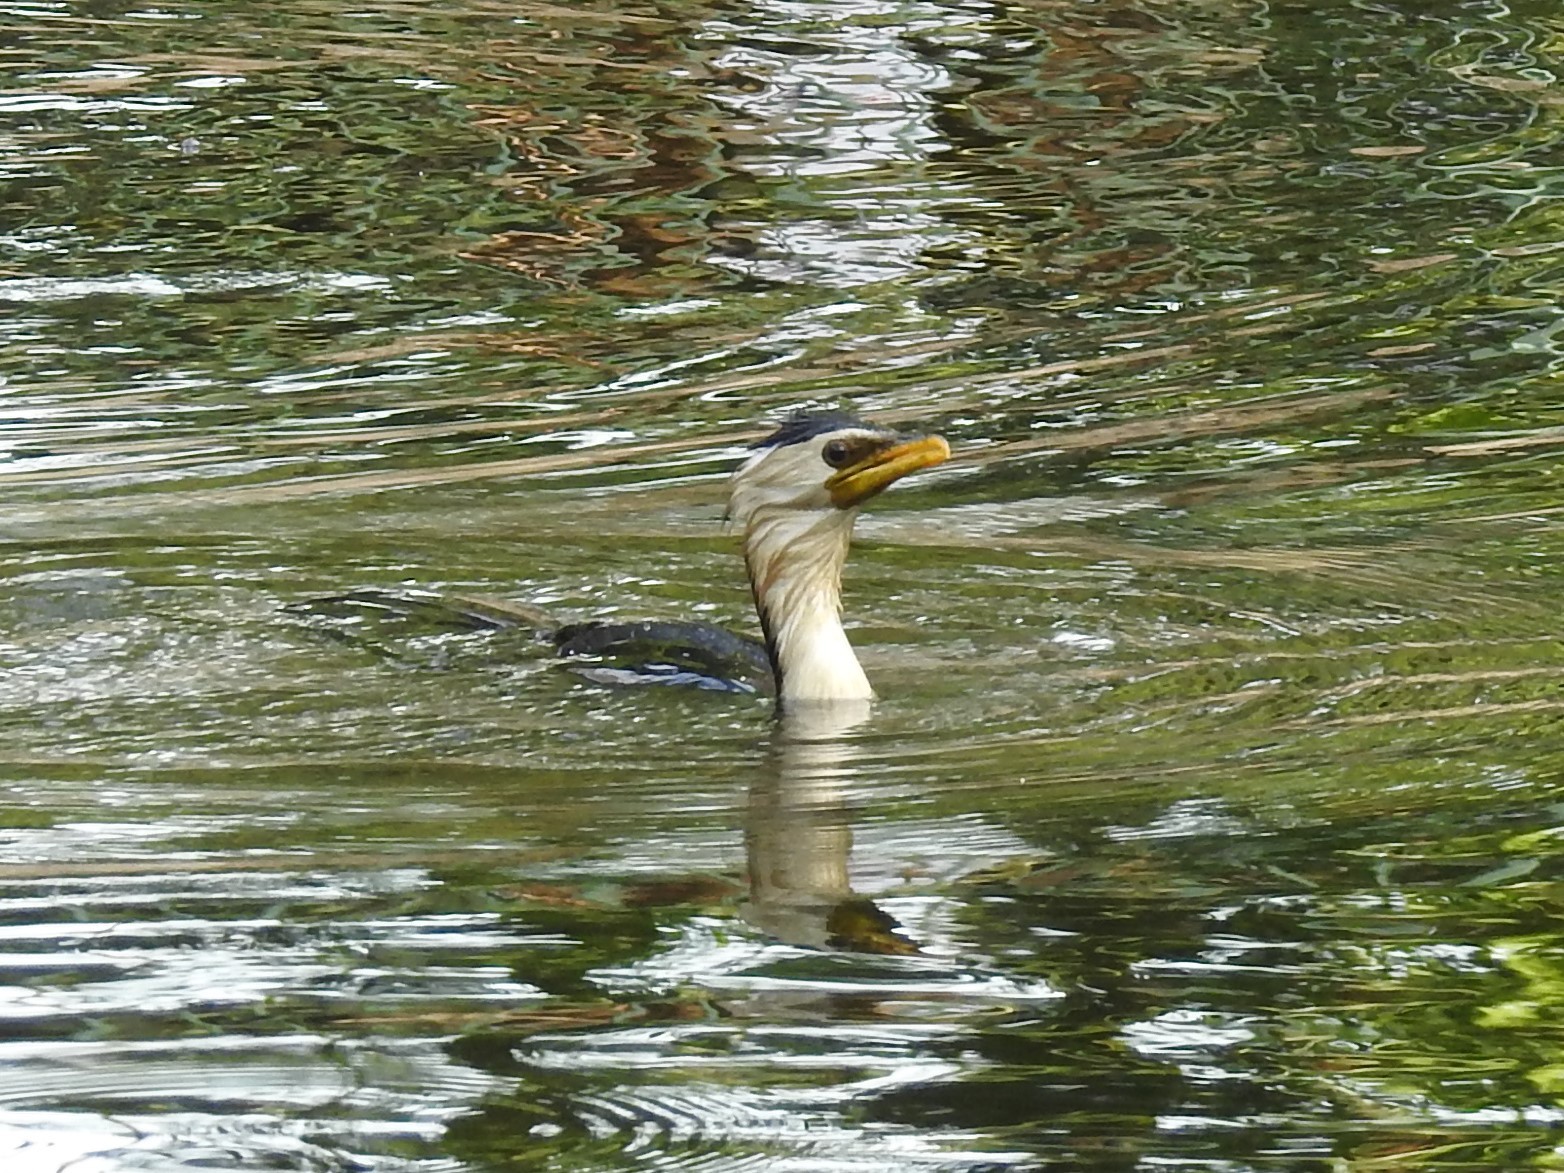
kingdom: Animalia
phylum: Chordata
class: Aves
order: Suliformes
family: Phalacrocoracidae
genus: Microcarbo
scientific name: Microcarbo melanoleucos
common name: Little pied cormorant
